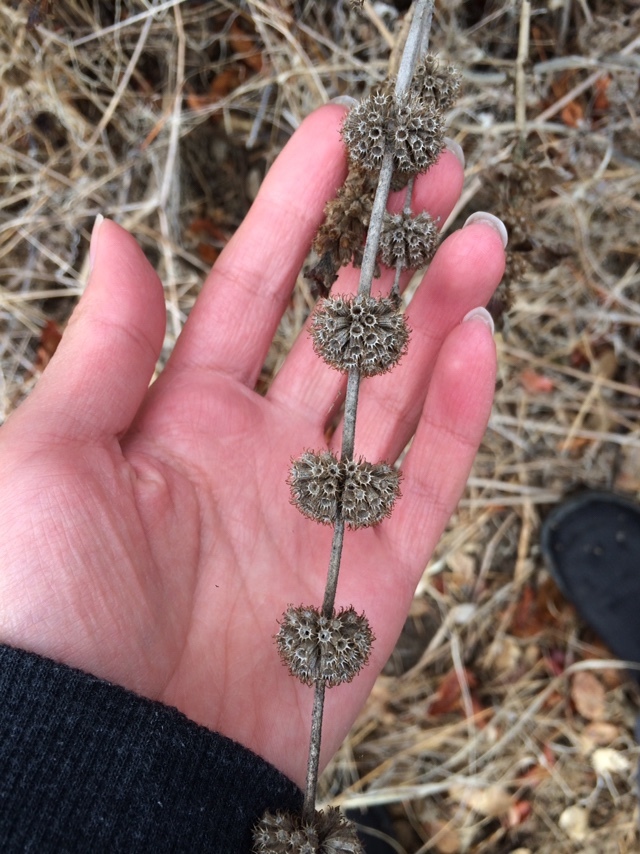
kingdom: Plantae
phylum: Tracheophyta
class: Magnoliopsida
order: Lamiales
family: Lamiaceae
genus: Marrubium
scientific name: Marrubium vulgare
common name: Horehound
